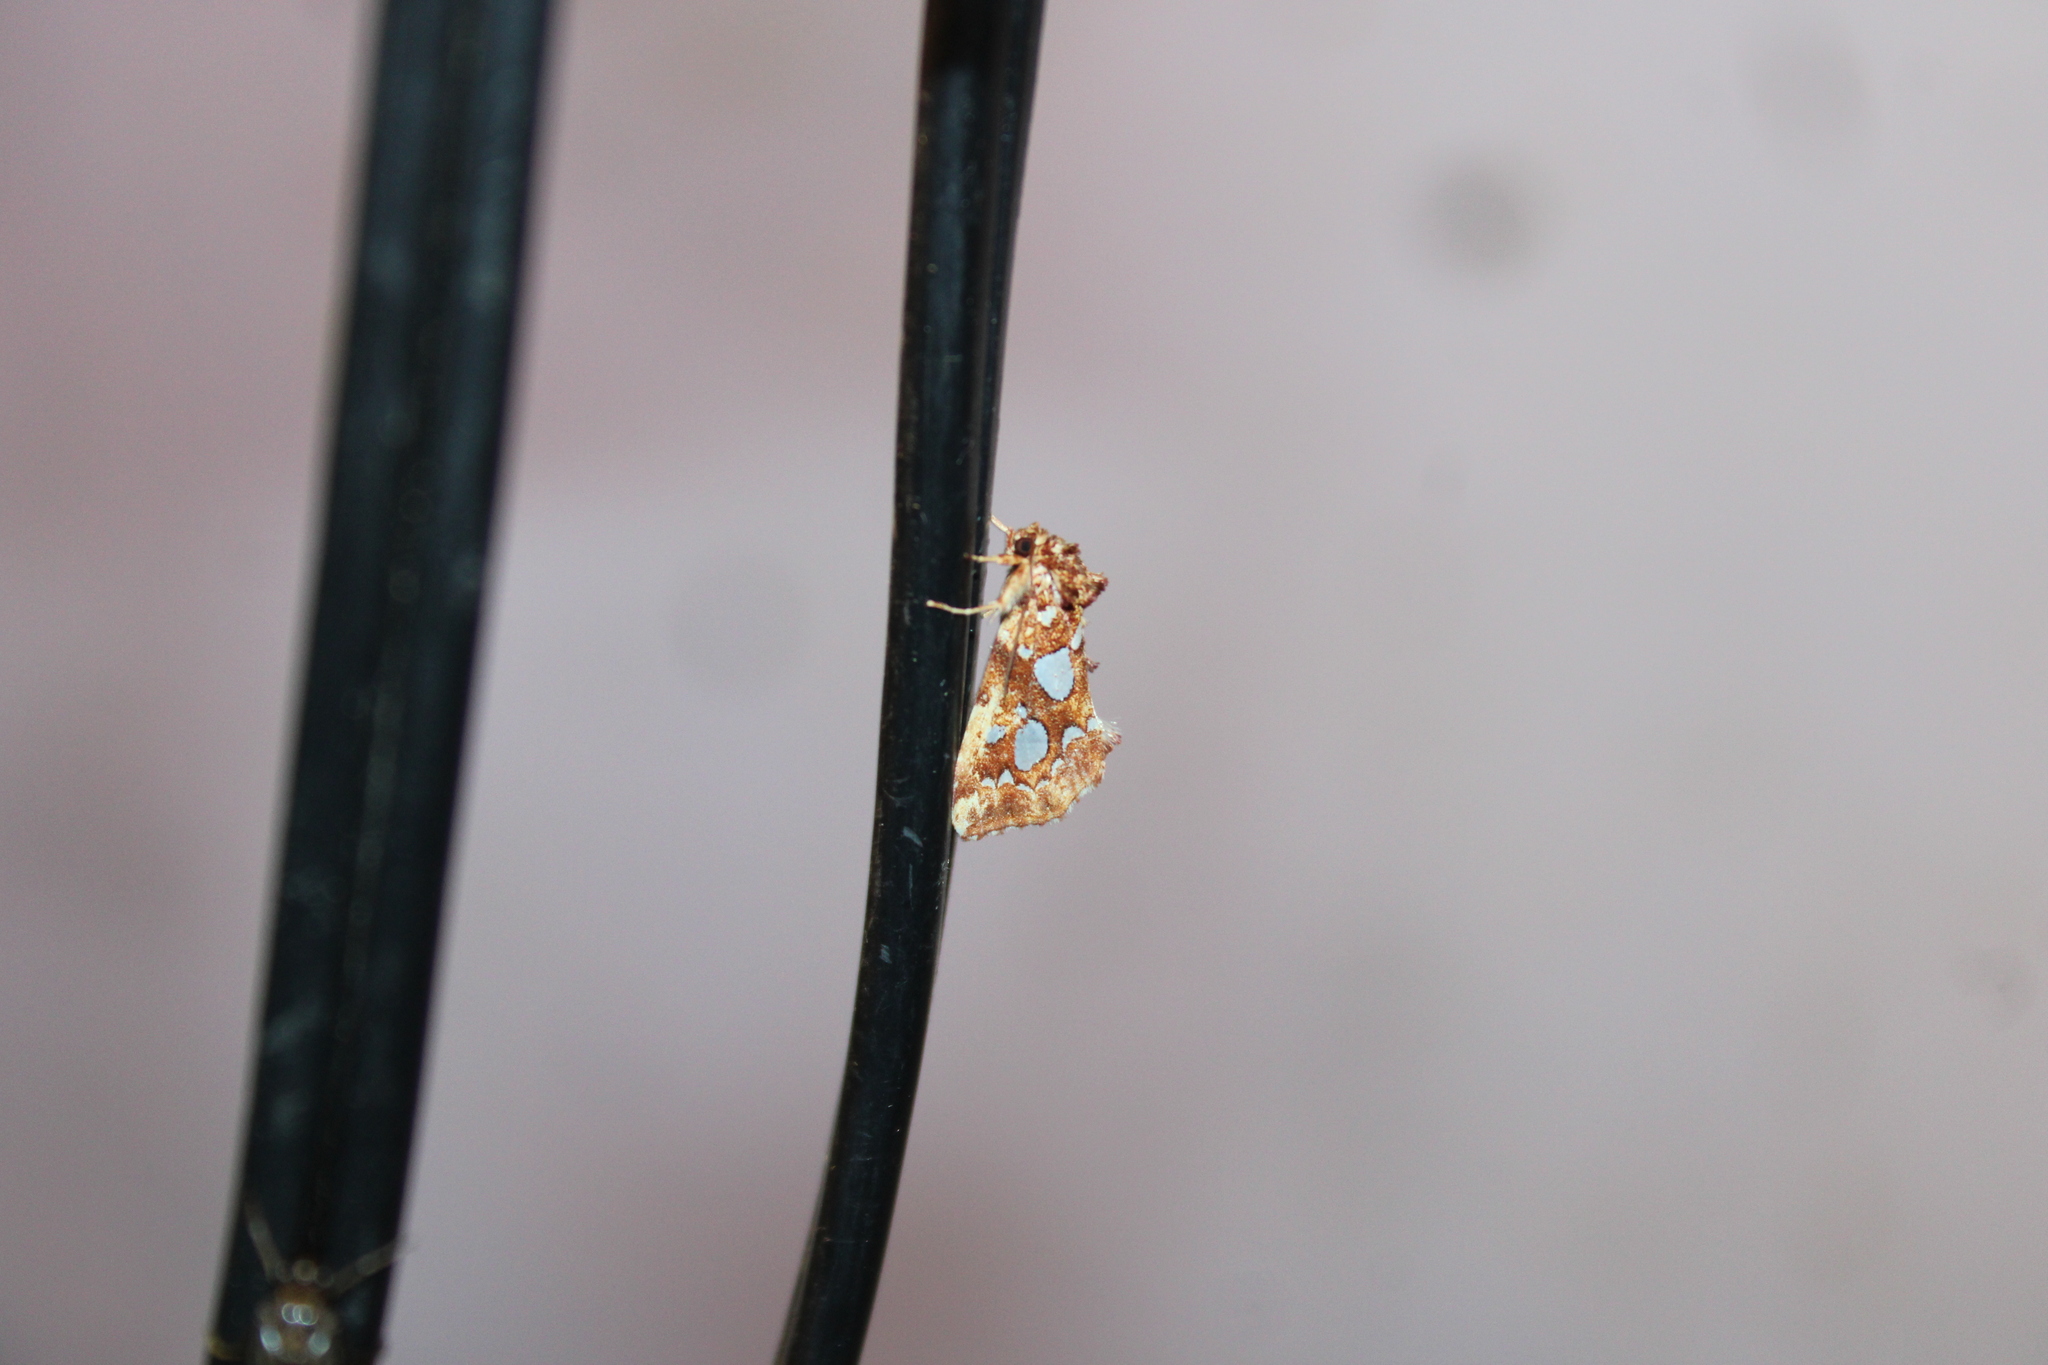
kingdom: Animalia
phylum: Arthropoda
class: Insecta
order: Lepidoptera
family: Noctuidae
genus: Callopistria
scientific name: Callopistria cordata
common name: Silver-spotted fern moth
